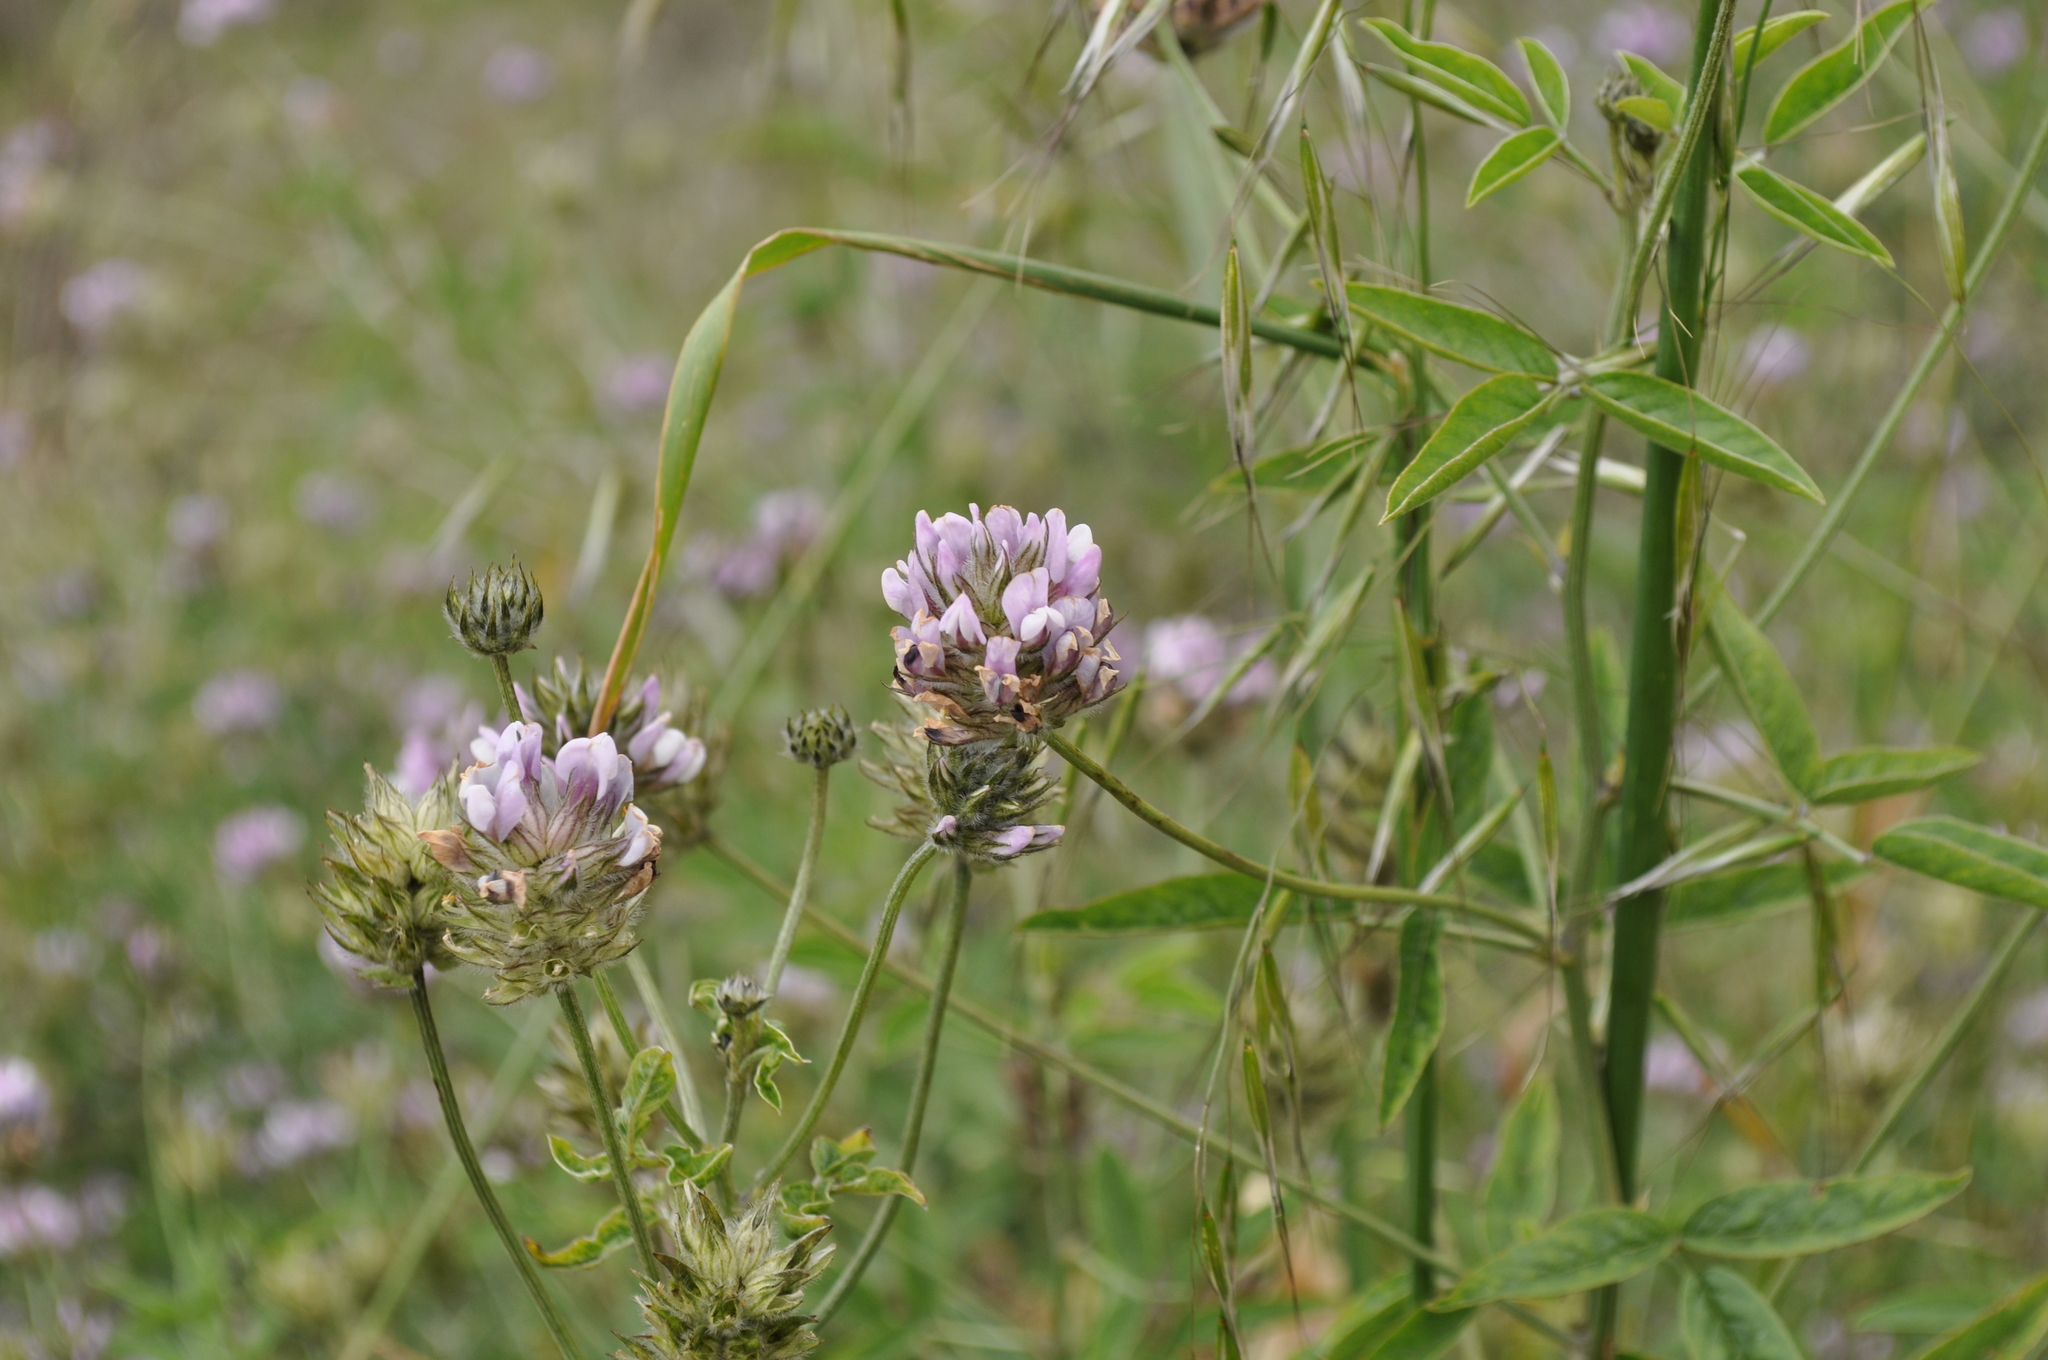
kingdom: Plantae
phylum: Tracheophyta
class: Magnoliopsida
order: Fabales
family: Fabaceae
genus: Bituminaria
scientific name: Bituminaria bituminosa
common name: Arabian pea
